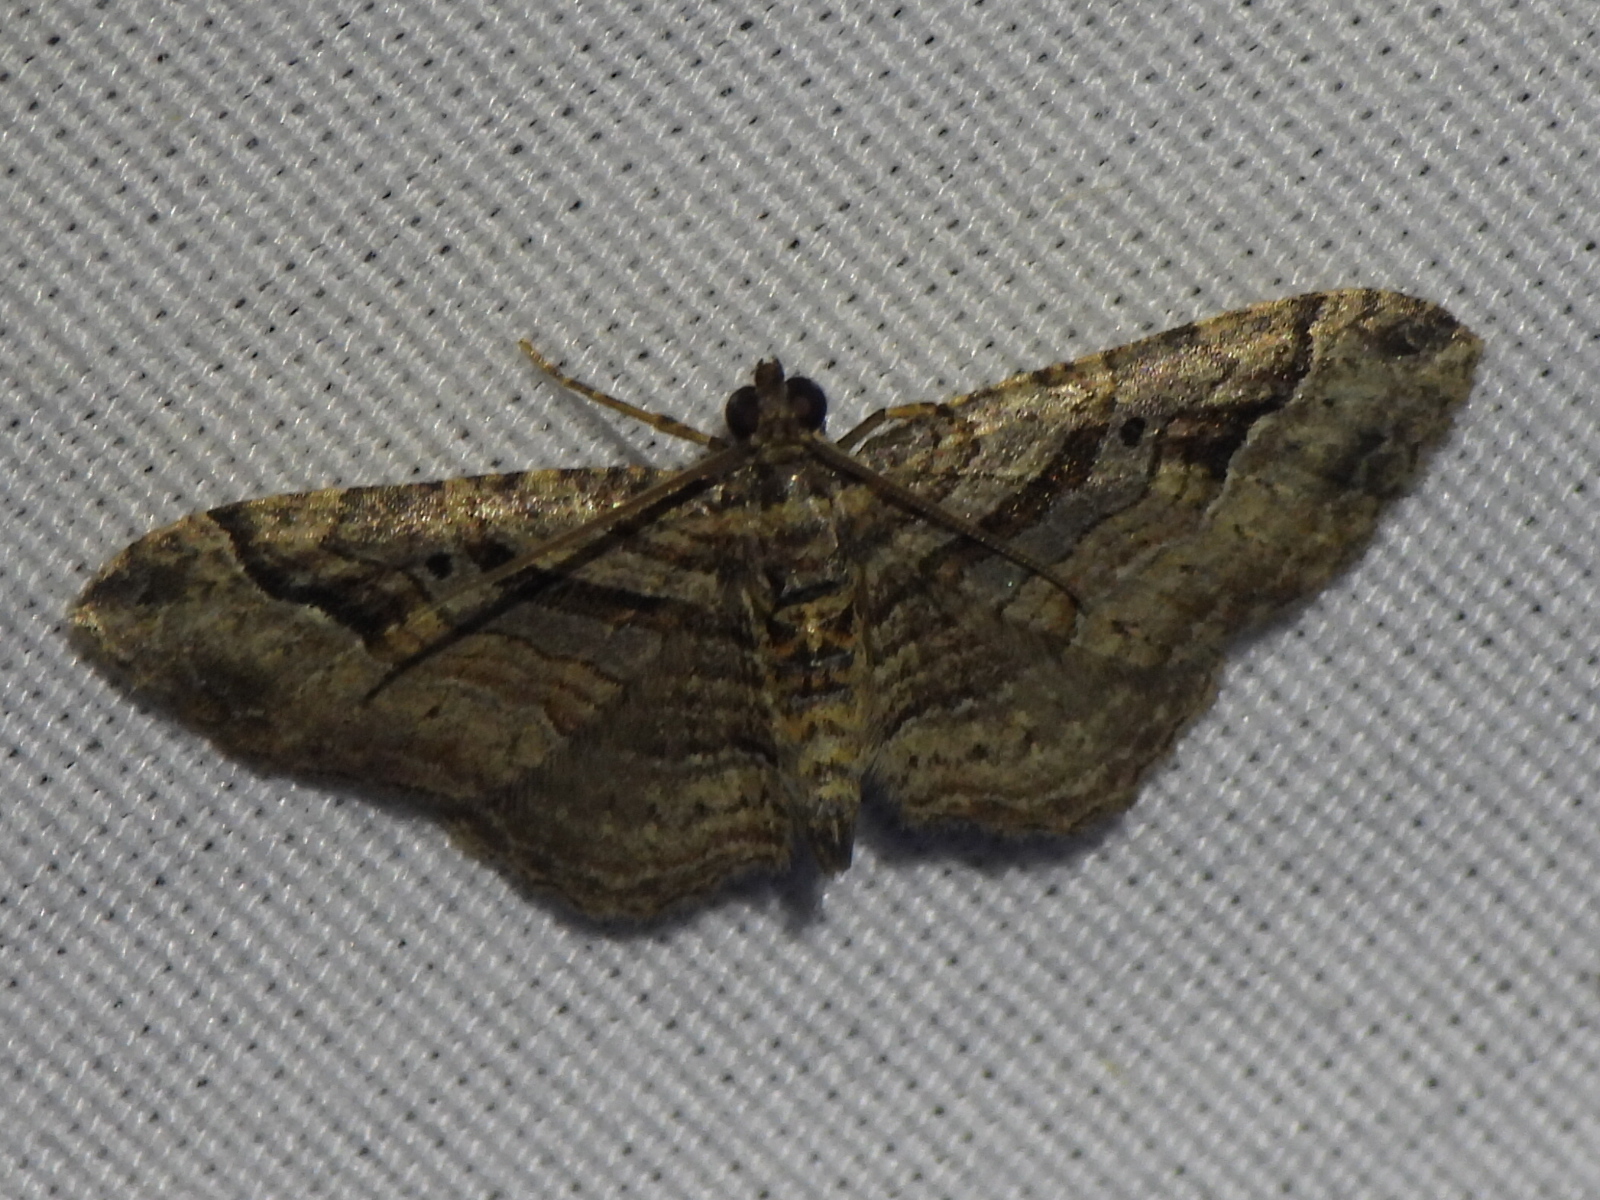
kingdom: Animalia
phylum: Arthropoda
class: Insecta
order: Lepidoptera
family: Geometridae
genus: Costaconvexa
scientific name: Costaconvexa centrostrigaria
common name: Bent-line carpet
